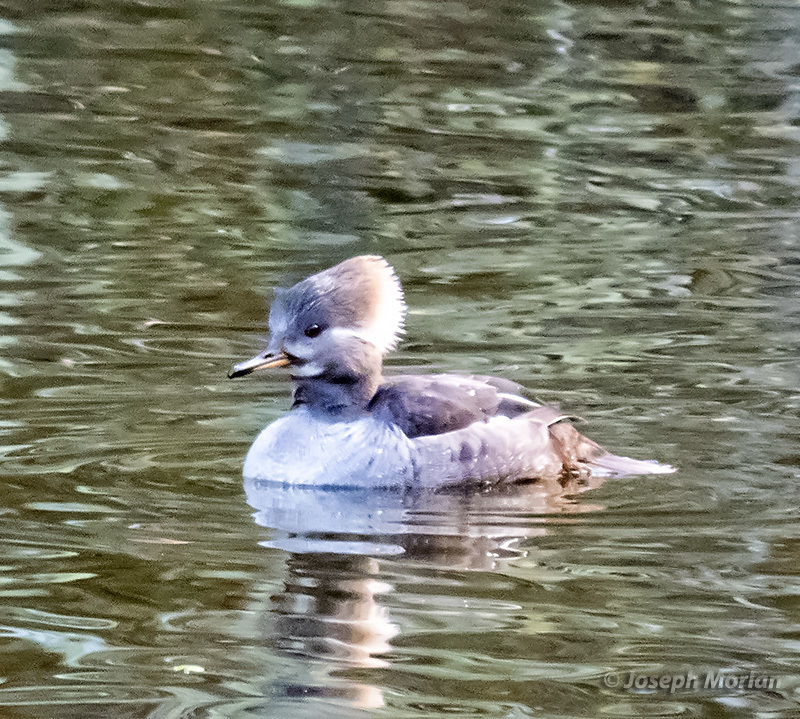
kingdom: Animalia
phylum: Chordata
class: Aves
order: Anseriformes
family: Anatidae
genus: Lophodytes
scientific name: Lophodytes cucullatus
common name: Hooded merganser
